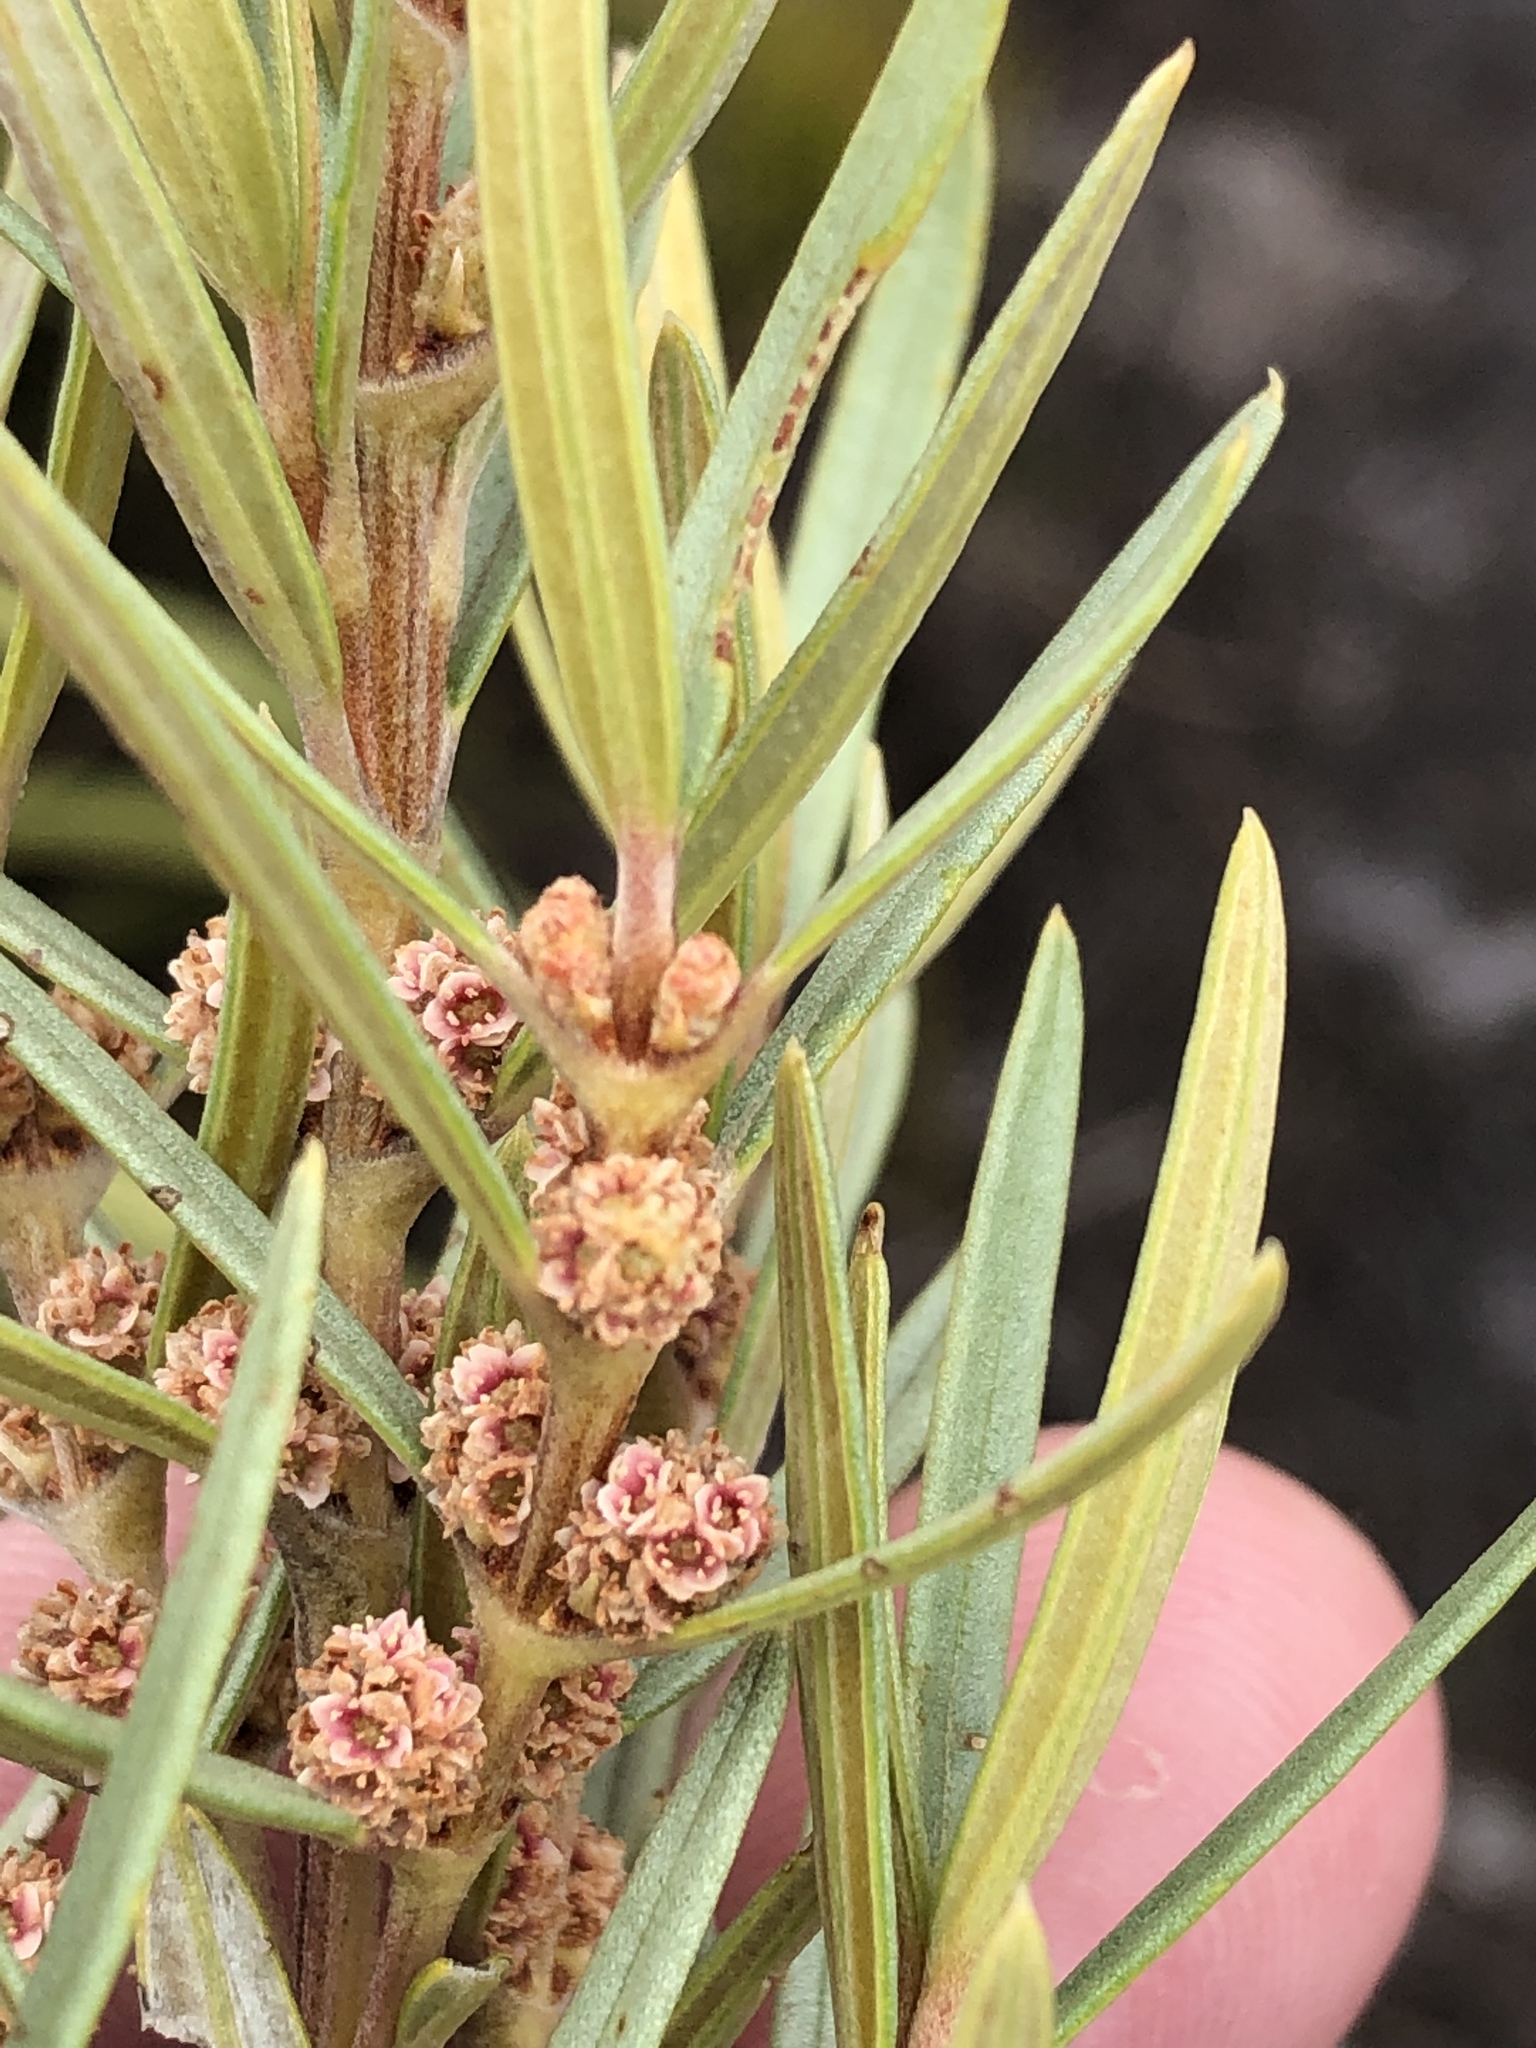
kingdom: Plantae
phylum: Tracheophyta
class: Magnoliopsida
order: Cornales
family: Grubbiaceae
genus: Grubbia
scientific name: Grubbia tomentosa
